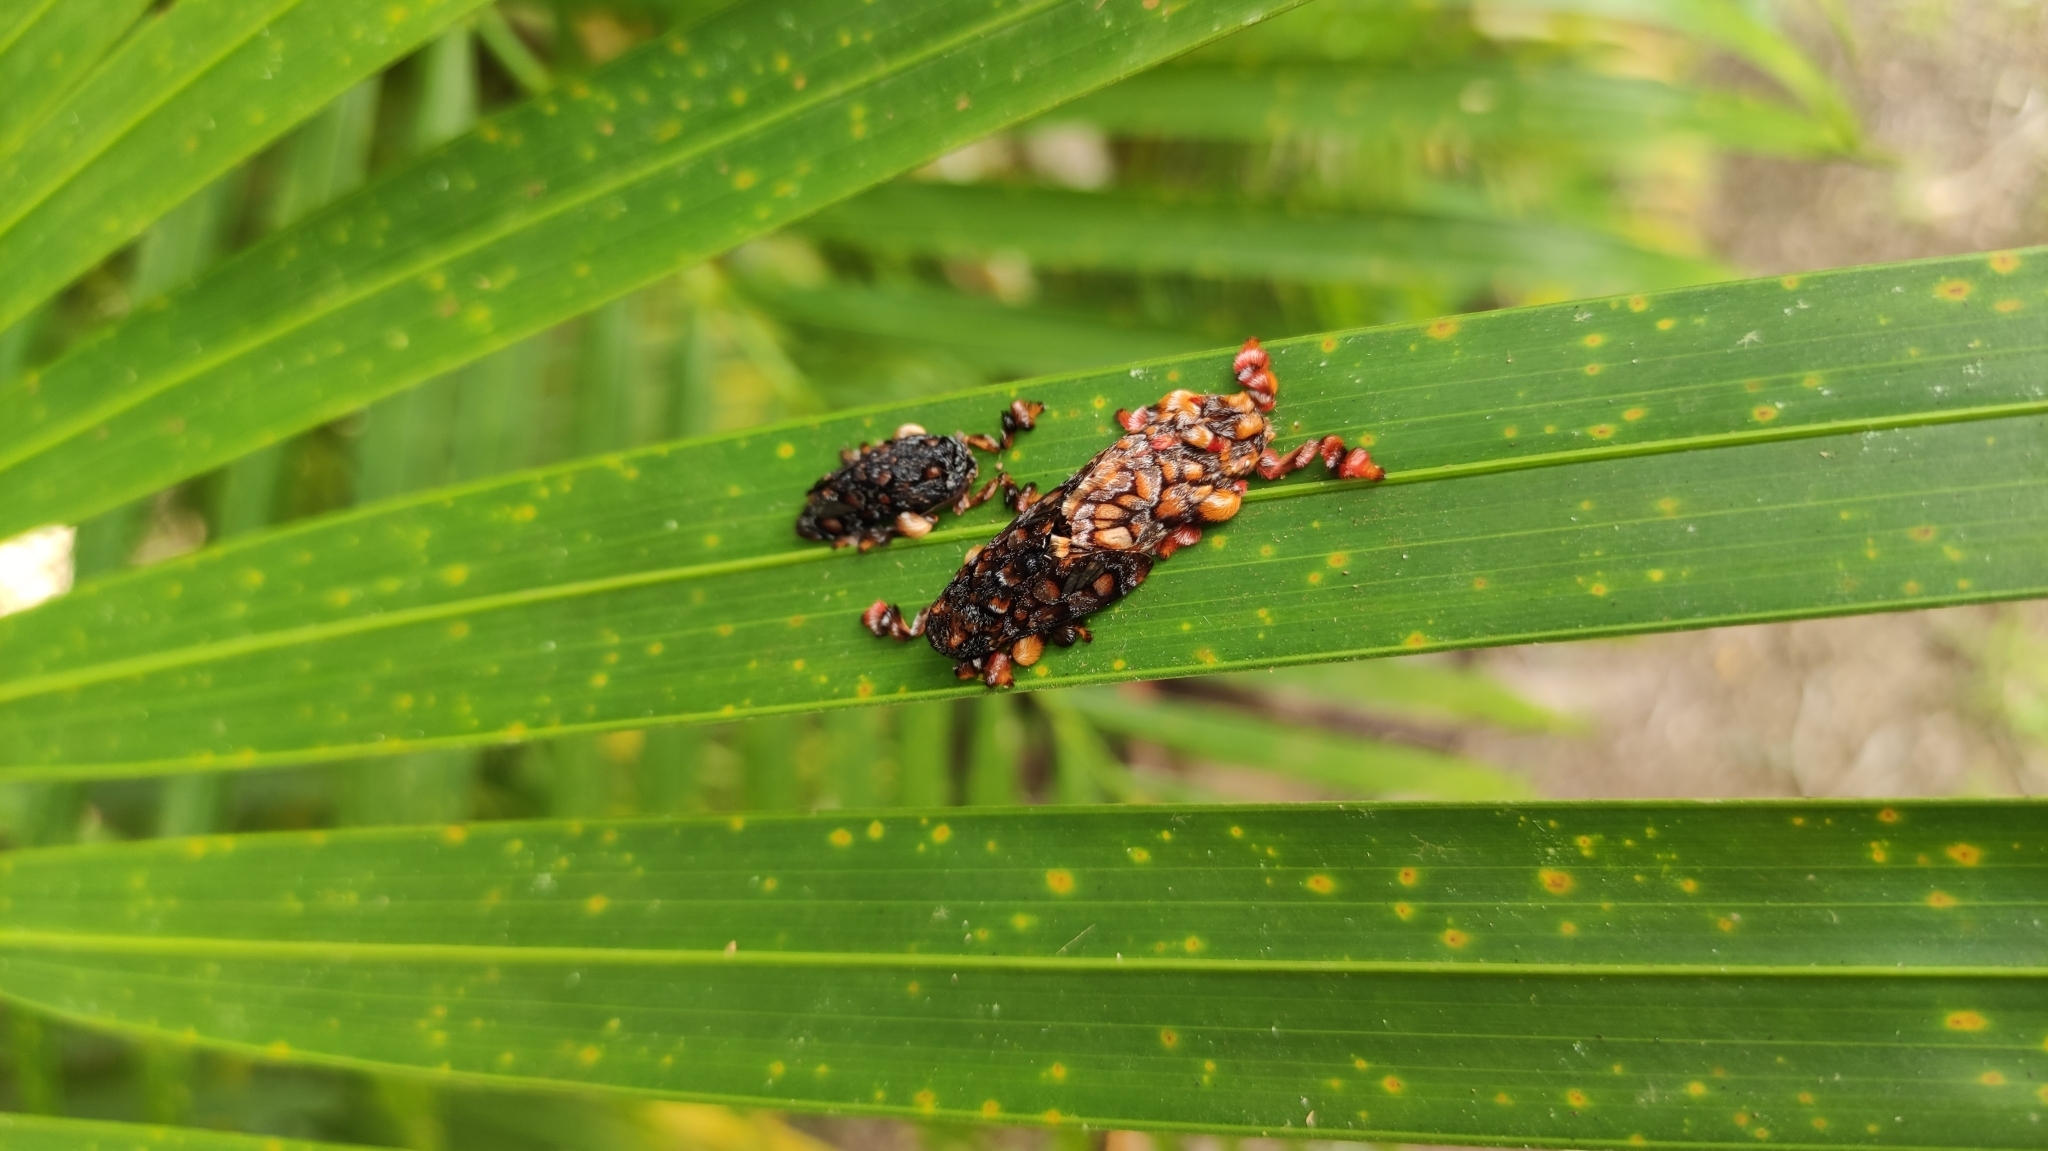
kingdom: Animalia
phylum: Arthropoda
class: Insecta
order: Lepidoptera
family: Limacodidae
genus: Phobetron
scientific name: Phobetron hipparchia
